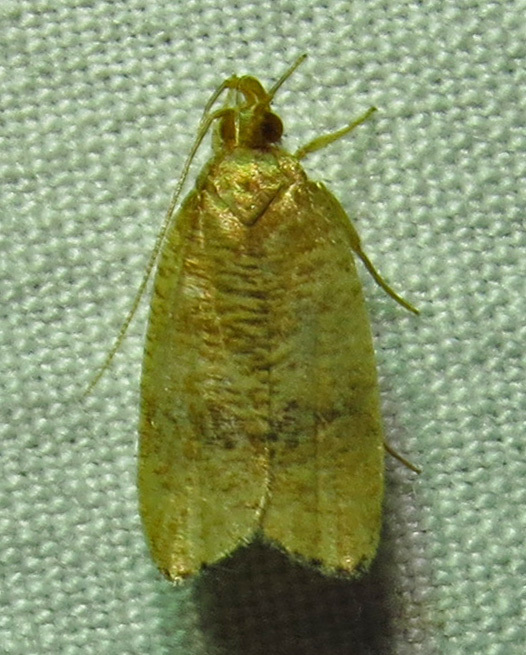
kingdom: Animalia
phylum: Arthropoda
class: Insecta
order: Lepidoptera
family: Depressariidae
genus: Psilocorsis
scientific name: Psilocorsis cryptolechiella
